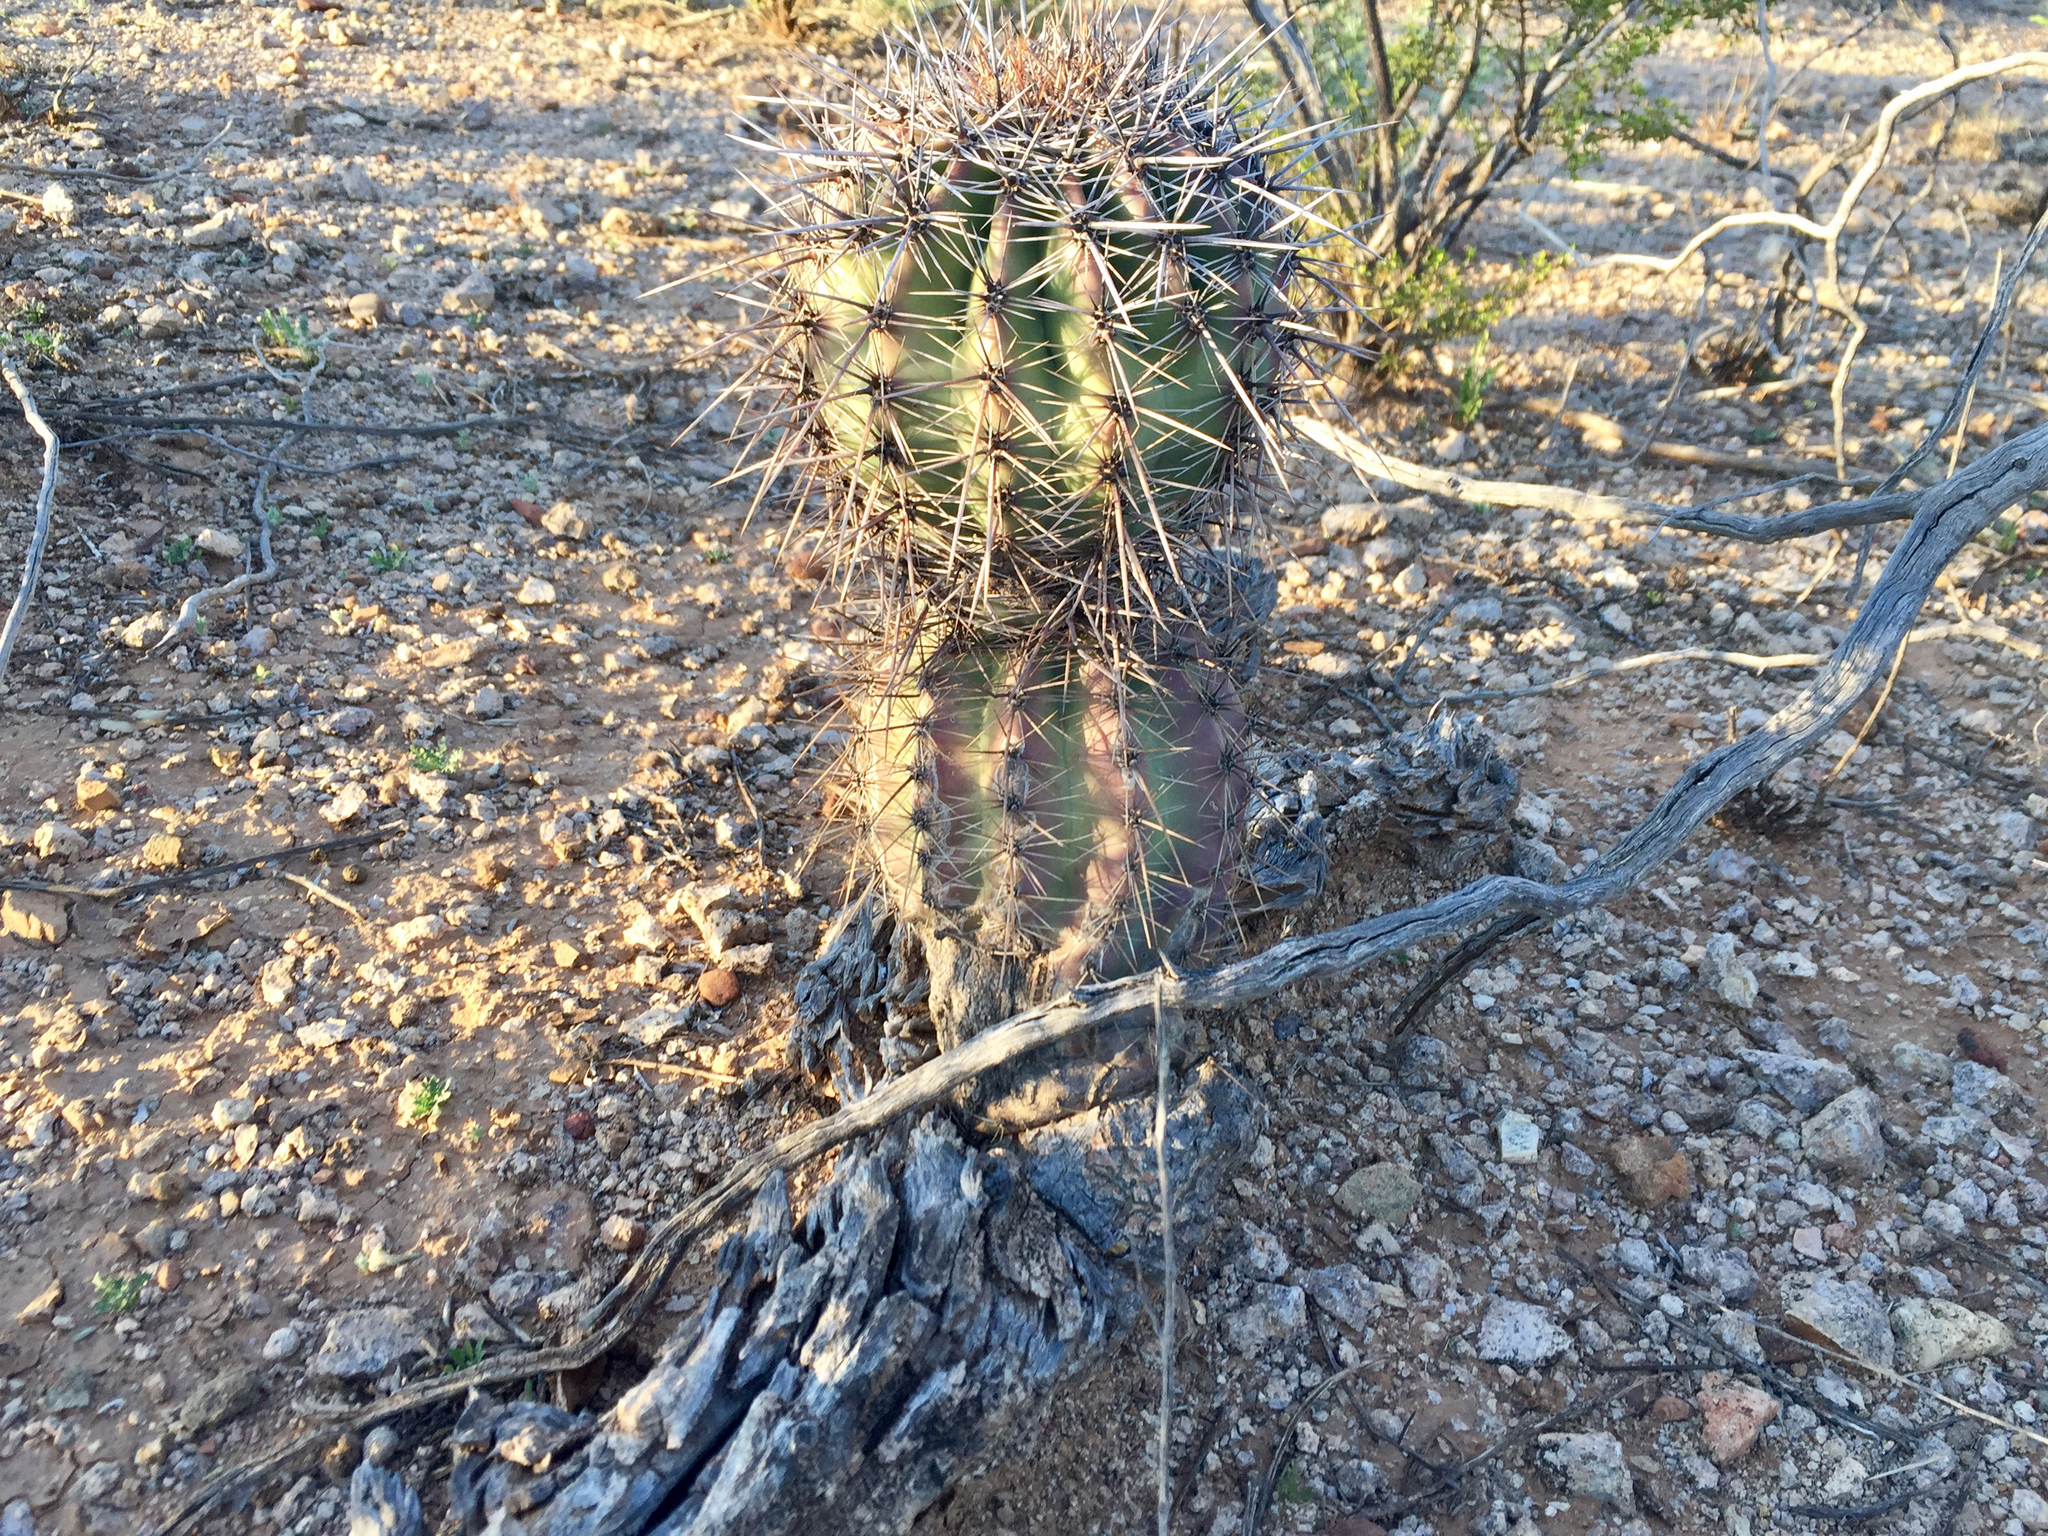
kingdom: Plantae
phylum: Tracheophyta
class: Magnoliopsida
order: Caryophyllales
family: Cactaceae
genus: Carnegiea
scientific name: Carnegiea gigantea
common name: Saguaro
